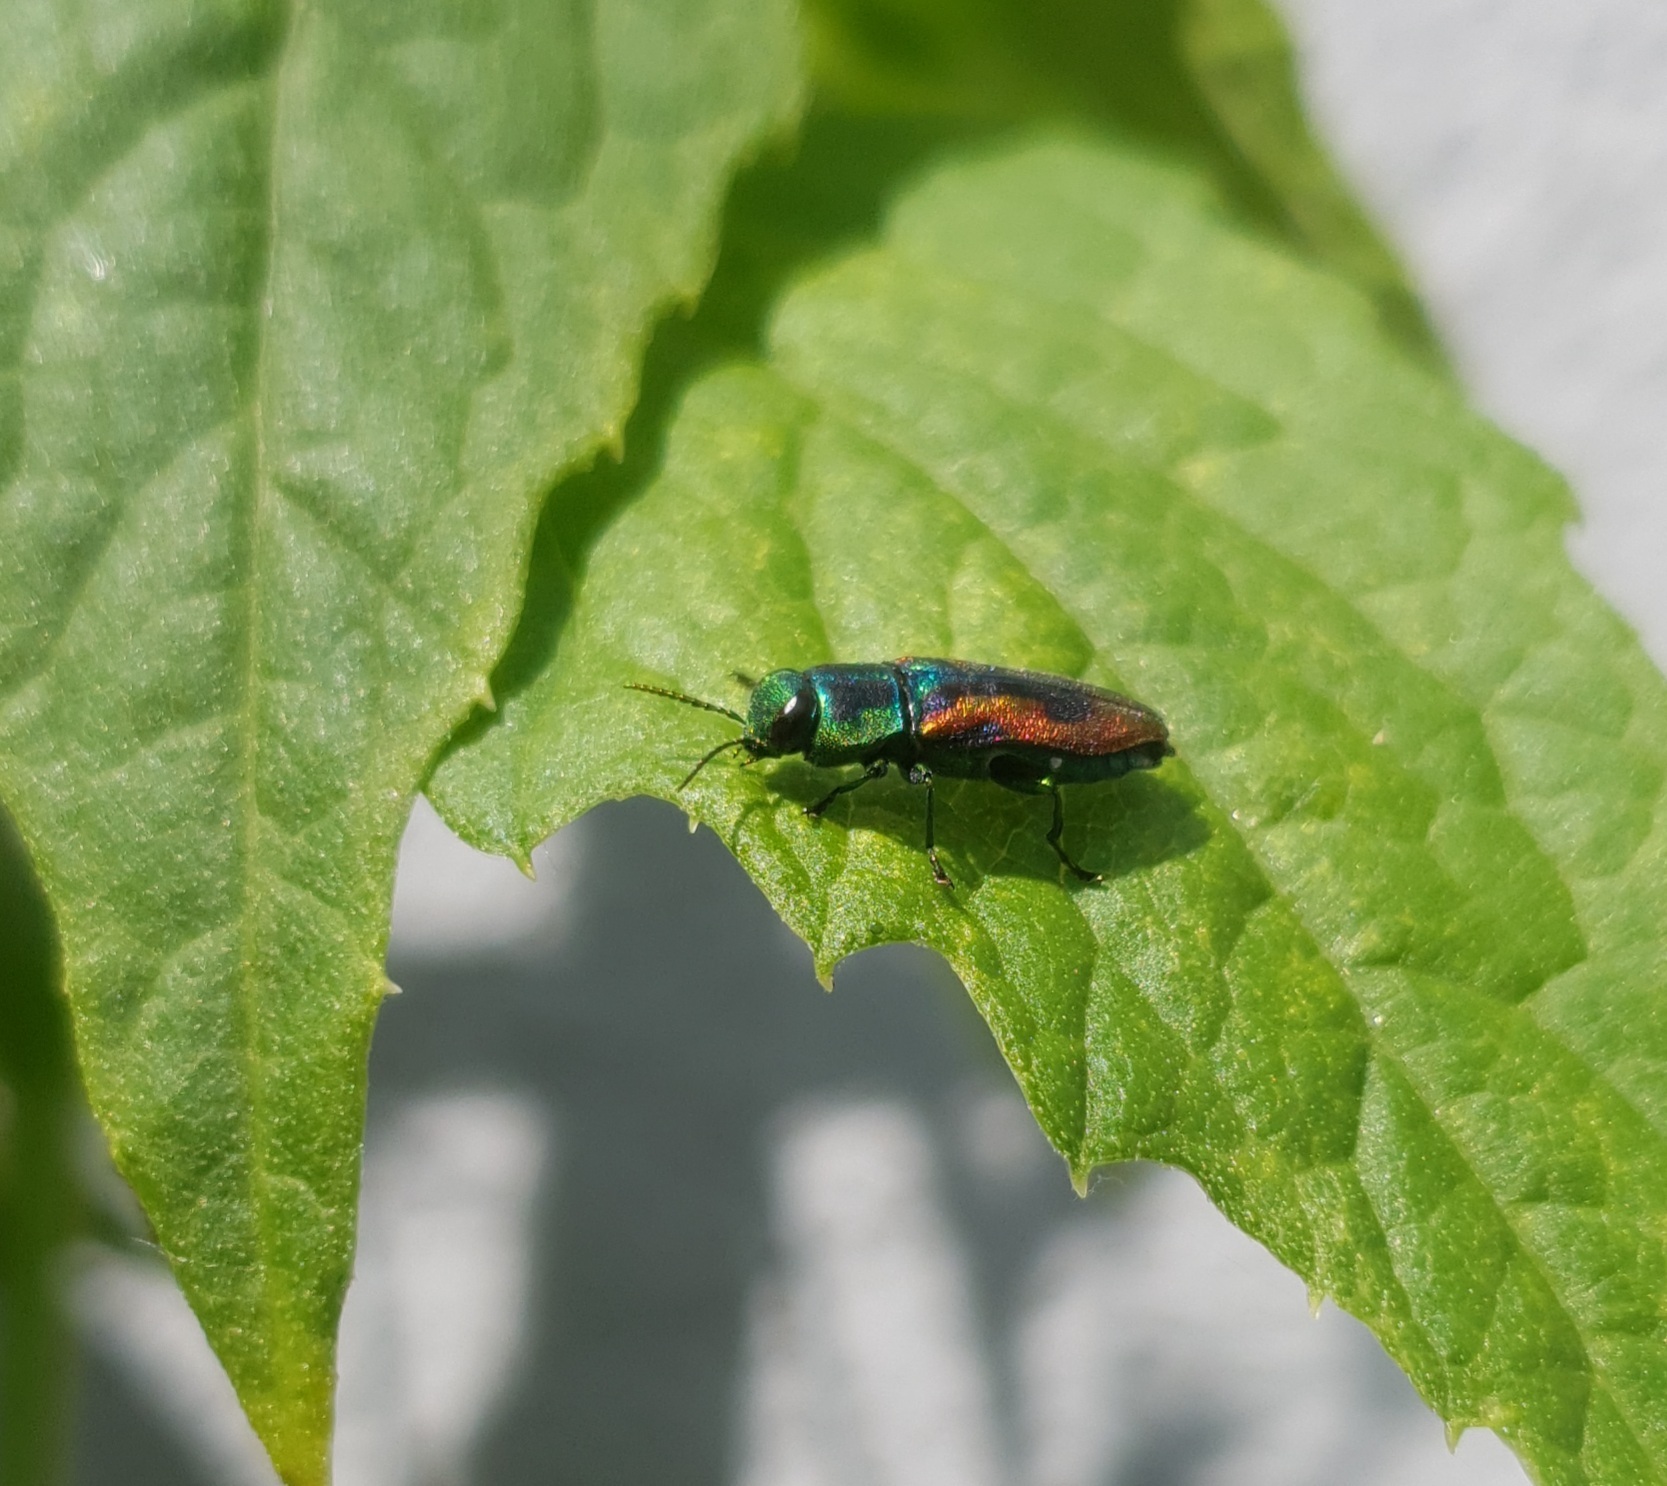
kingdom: Animalia
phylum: Arthropoda
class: Insecta
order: Coleoptera
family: Buprestidae
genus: Anthaxia
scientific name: Anthaxia candens
